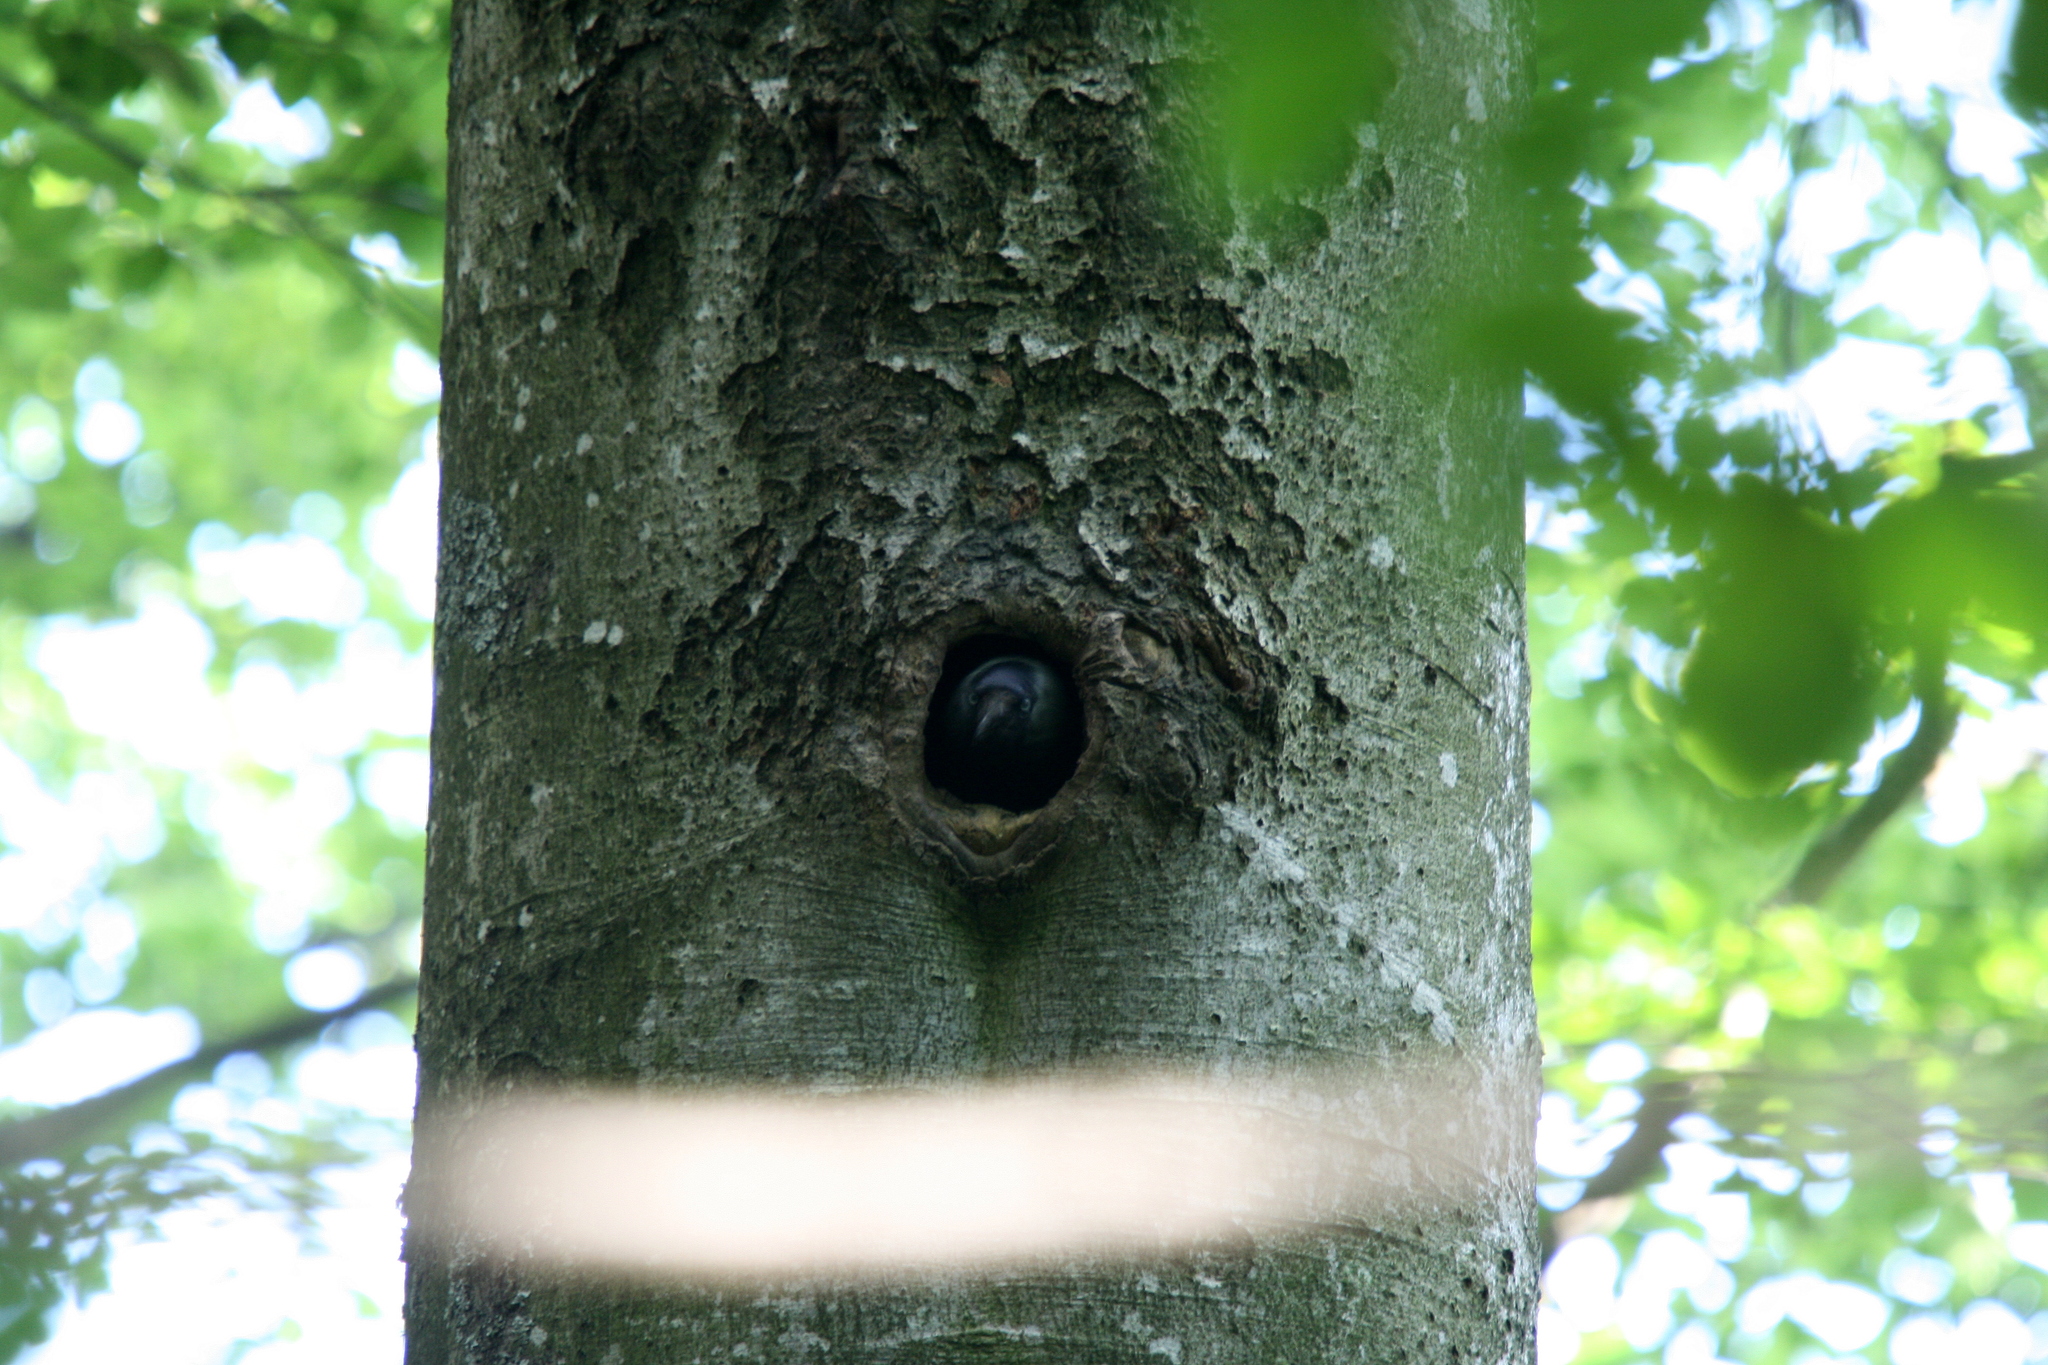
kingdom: Animalia
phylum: Chordata
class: Aves
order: Passeriformes
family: Corvidae
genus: Coloeus
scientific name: Coloeus monedula
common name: Western jackdaw
